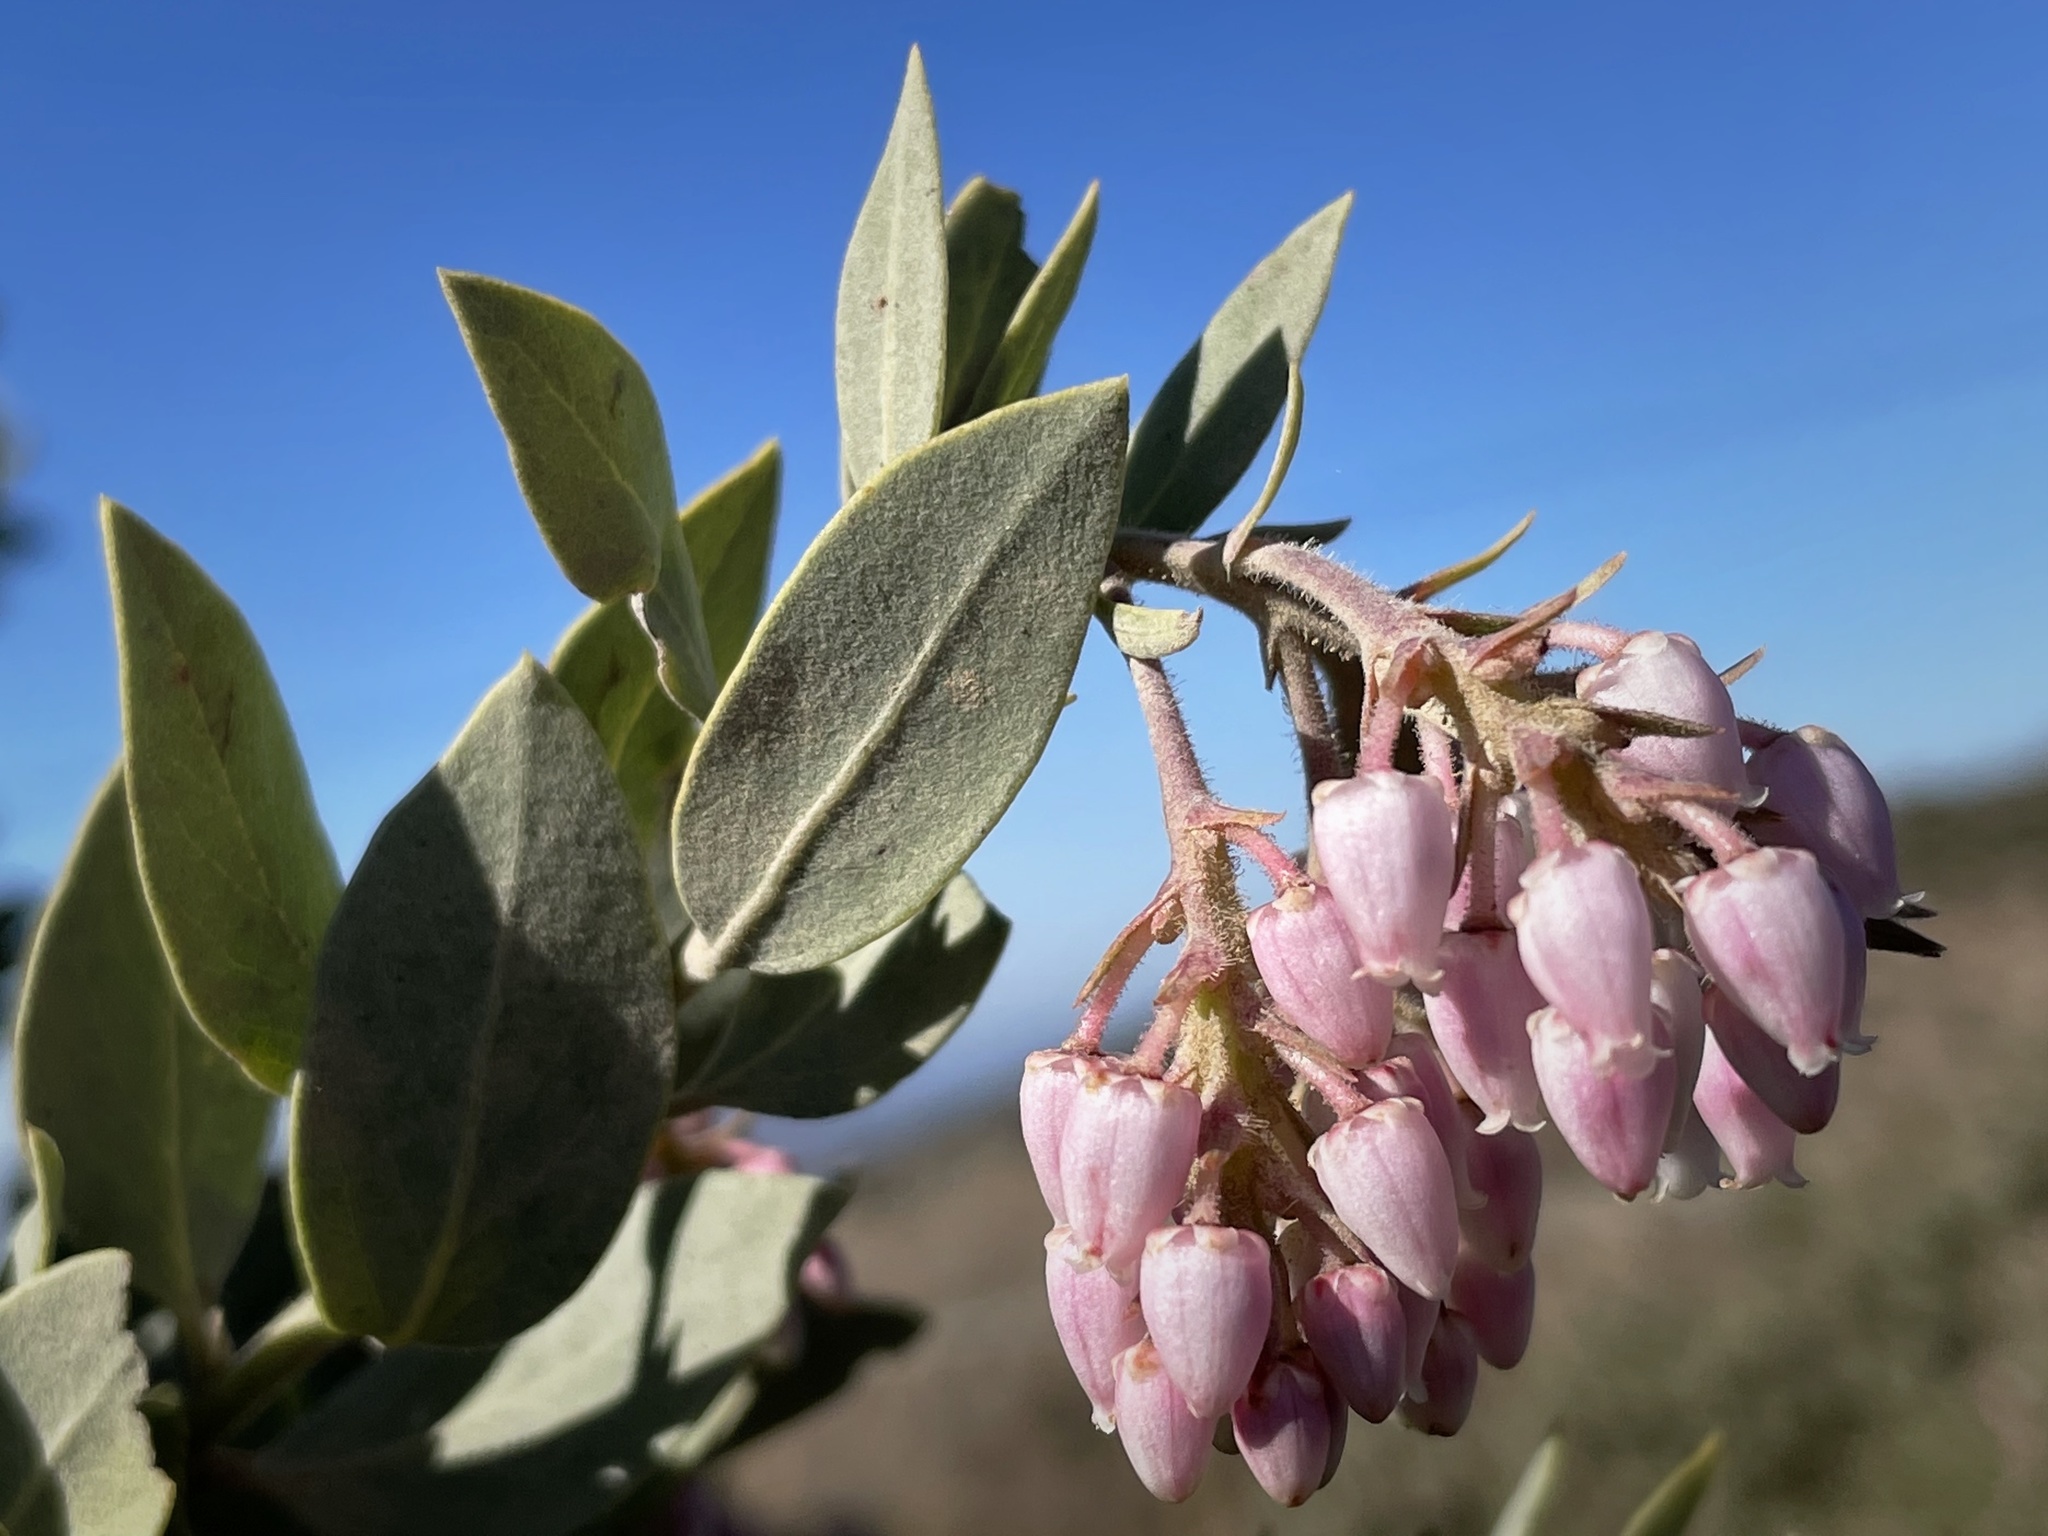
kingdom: Plantae
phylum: Tracheophyta
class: Magnoliopsida
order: Ericales
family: Ericaceae
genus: Arctostaphylos
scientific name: Arctostaphylos otayensis
